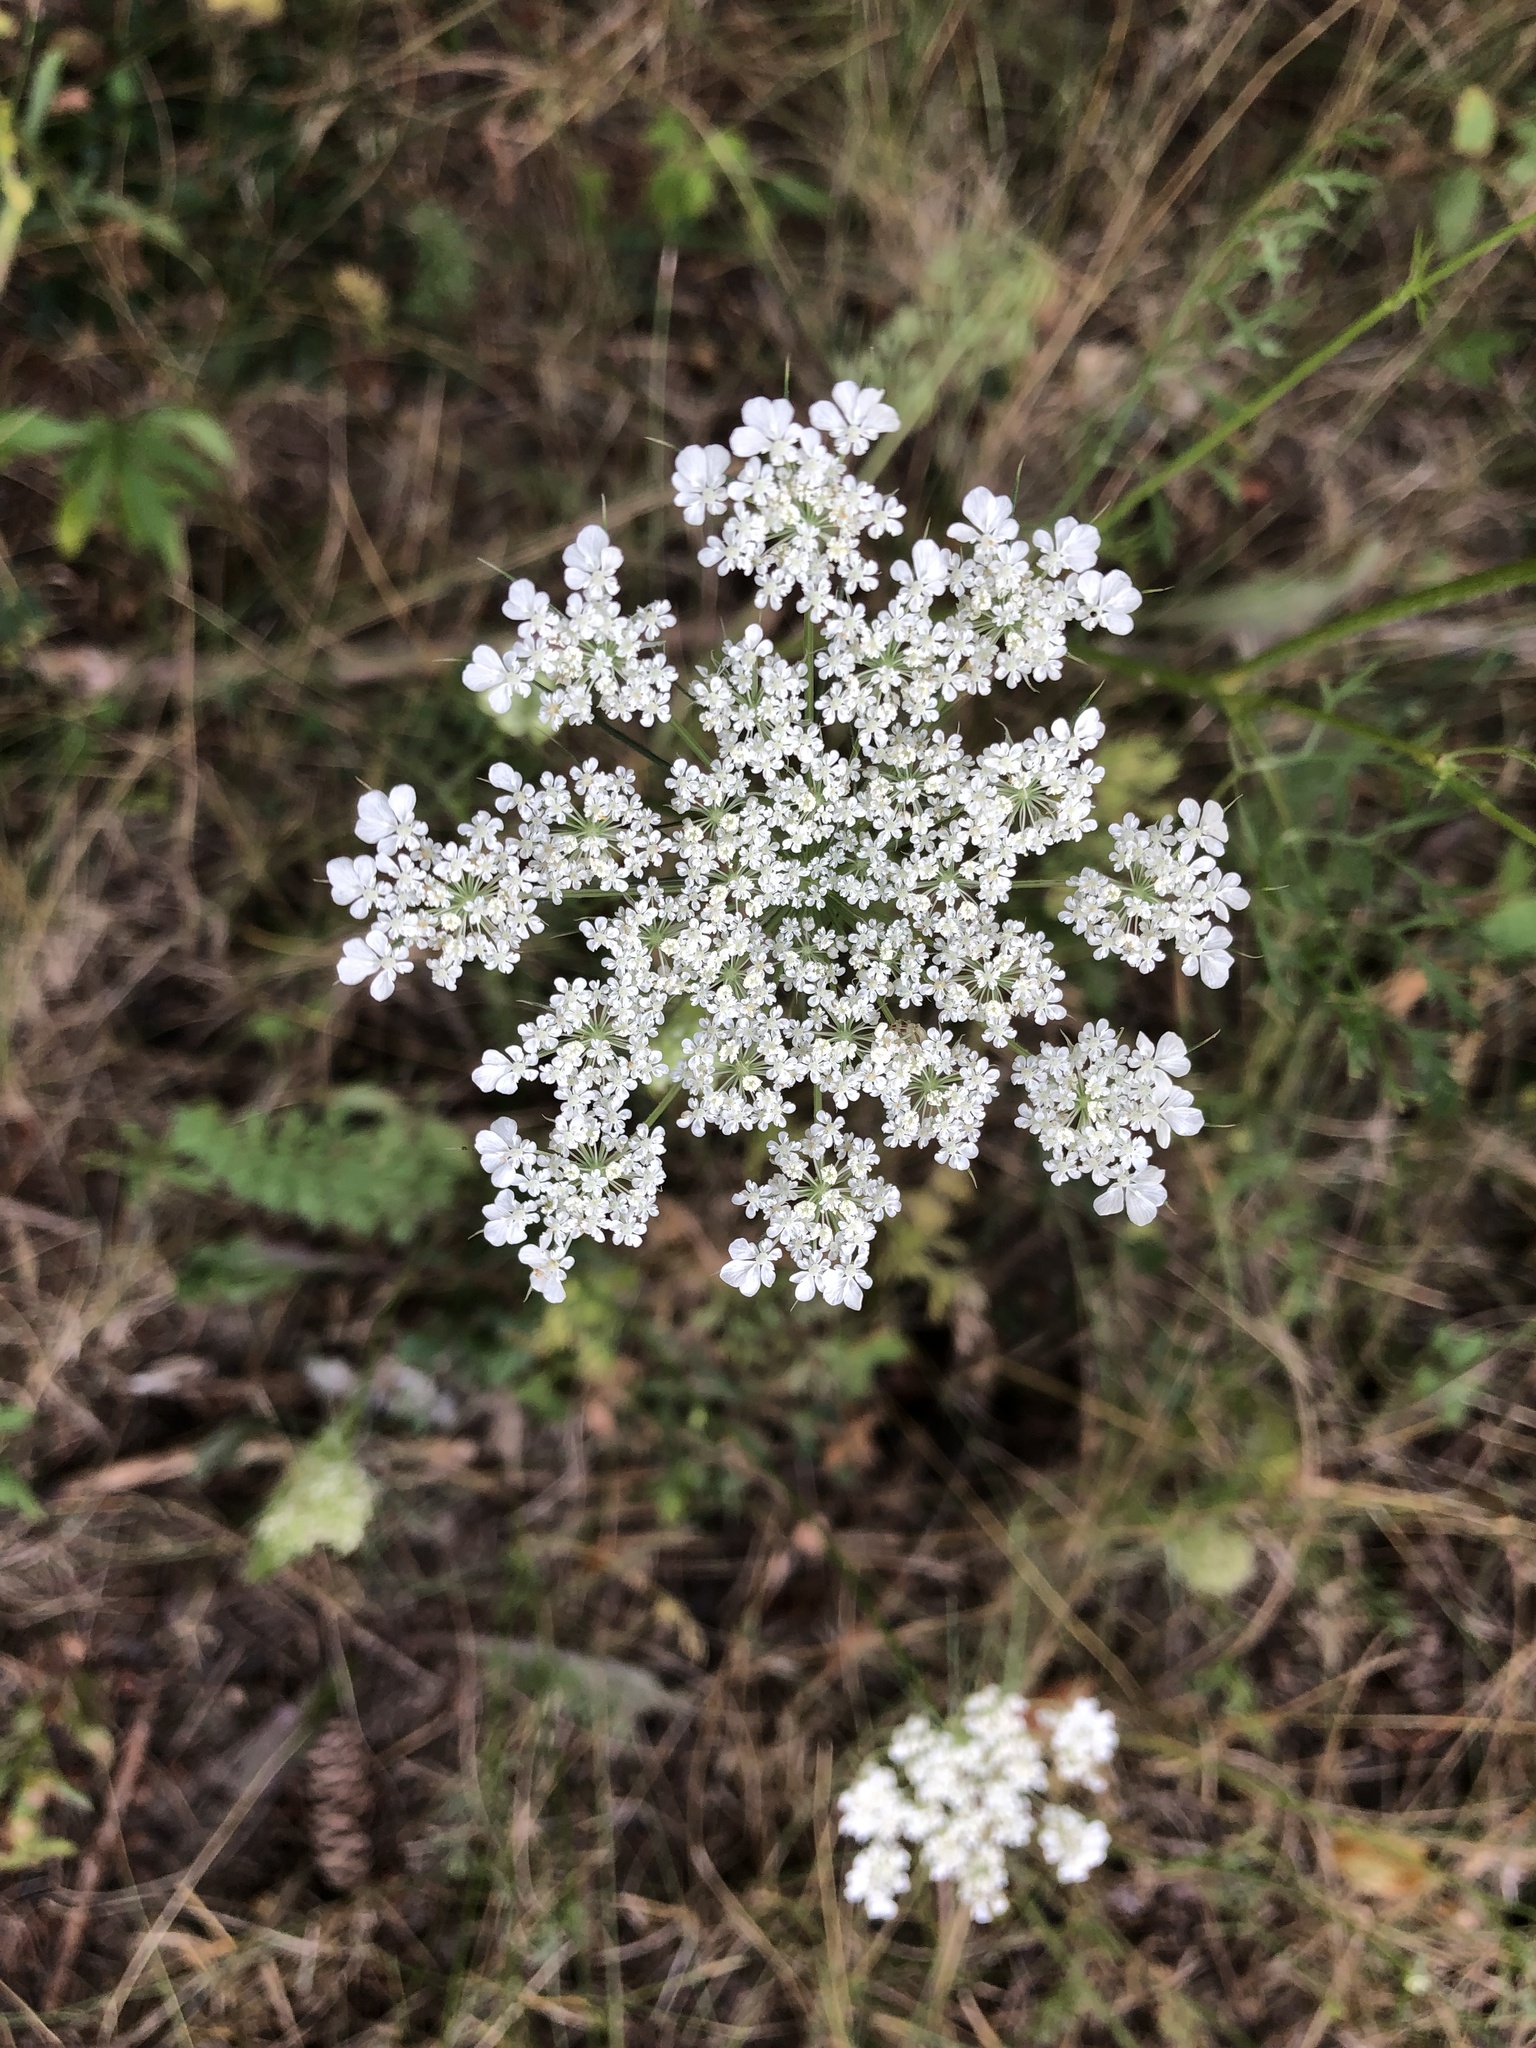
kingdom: Plantae
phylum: Tracheophyta
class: Magnoliopsida
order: Apiales
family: Apiaceae
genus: Daucus
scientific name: Daucus carota
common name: Wild carrot
